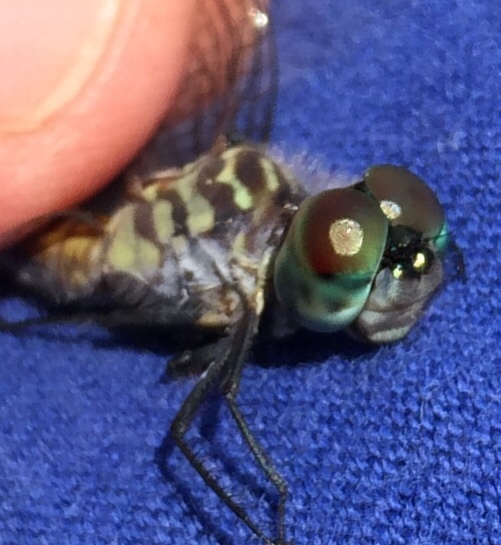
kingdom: Animalia
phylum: Arthropoda
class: Insecta
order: Odonata
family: Libellulidae
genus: Pachydiplax
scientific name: Pachydiplax longipennis
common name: Blue dasher
